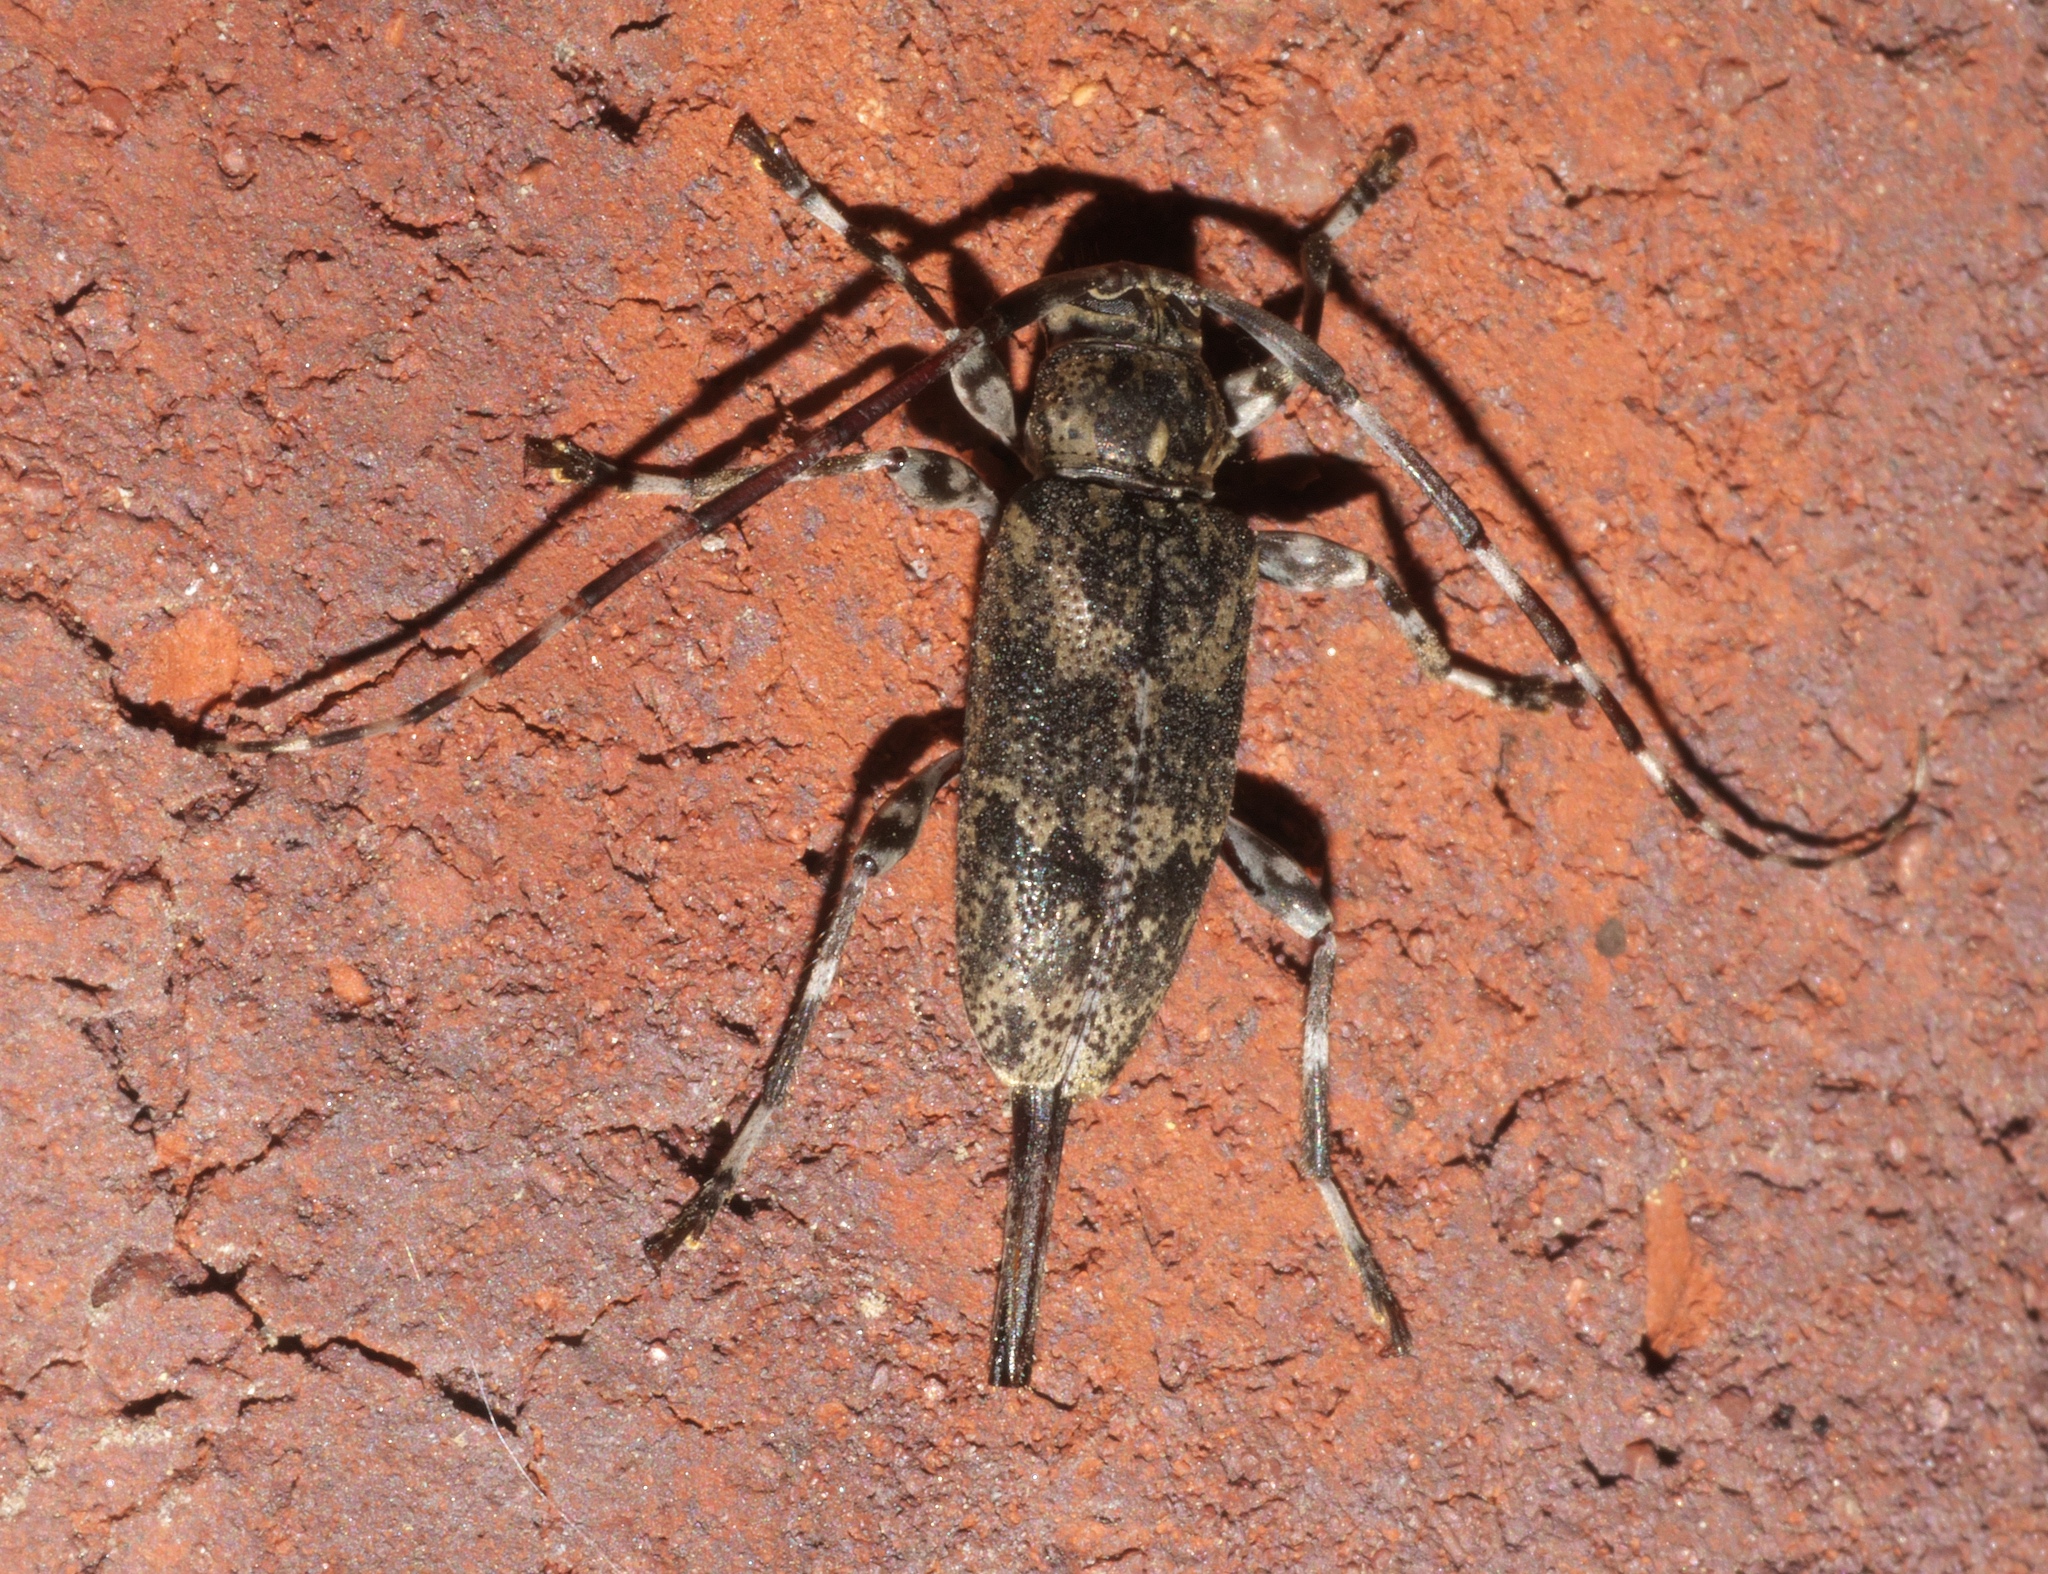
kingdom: Animalia
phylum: Arthropoda
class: Insecta
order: Coleoptera
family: Cerambycidae
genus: Graphisurus
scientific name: Graphisurus fasciatus
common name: Banded graphisurus
